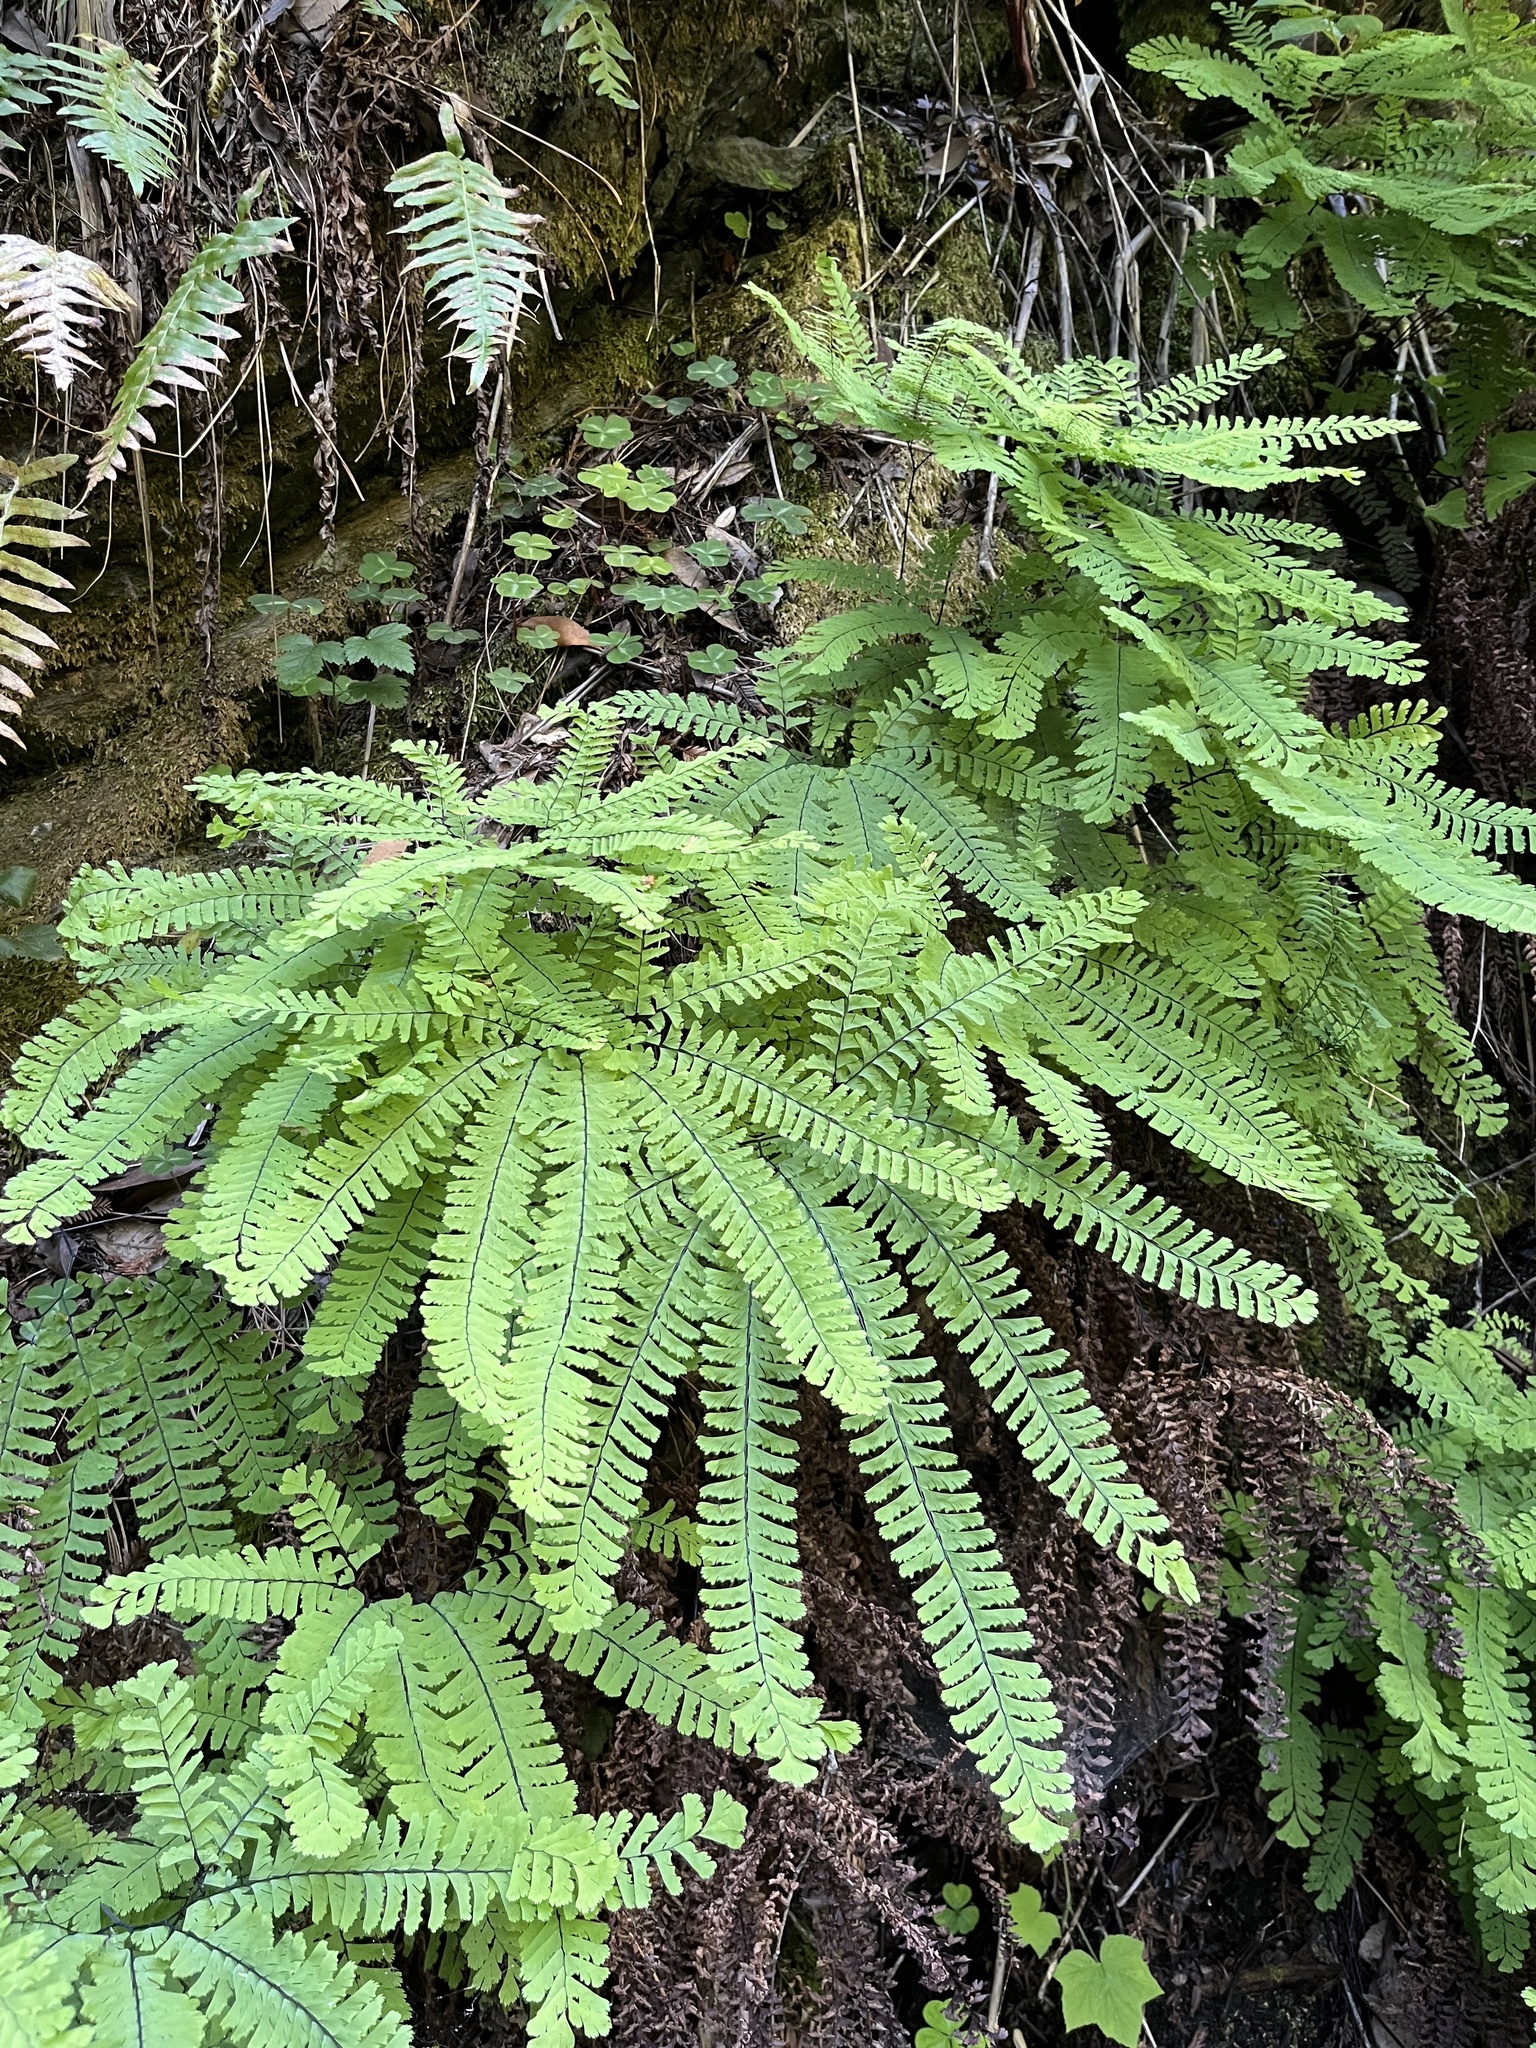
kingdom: Plantae
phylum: Tracheophyta
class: Polypodiopsida
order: Polypodiales
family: Pteridaceae
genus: Adiantum
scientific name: Adiantum aleuticum
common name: Aleutian maidenhair fern
